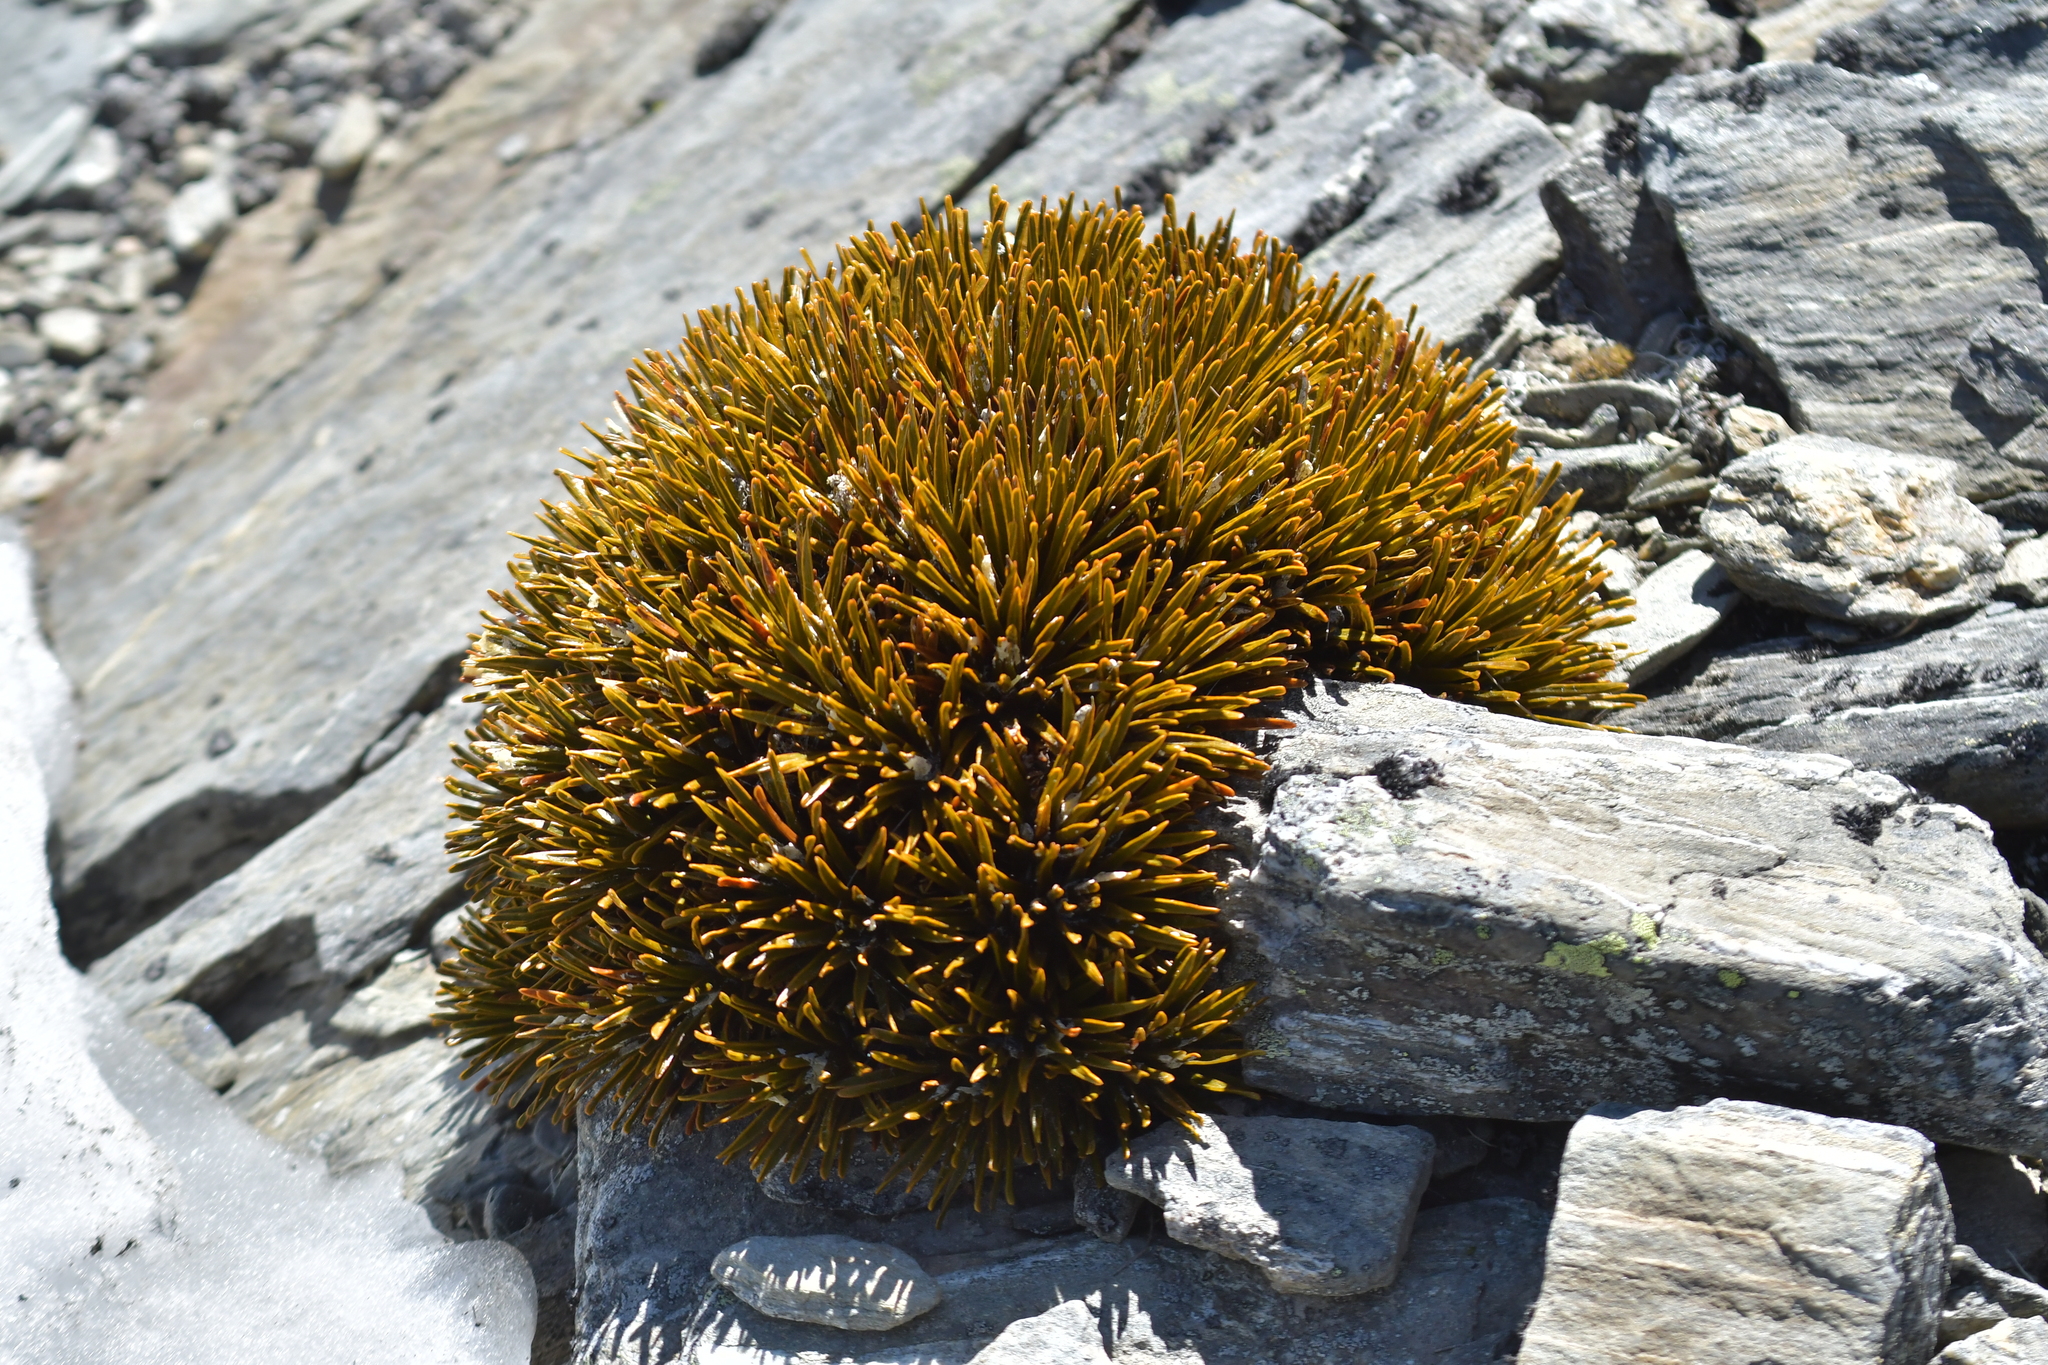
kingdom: Plantae
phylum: Tracheophyta
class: Magnoliopsida
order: Apiales
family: Apiaceae
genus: Aciphylla
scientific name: Aciphylla simplex
